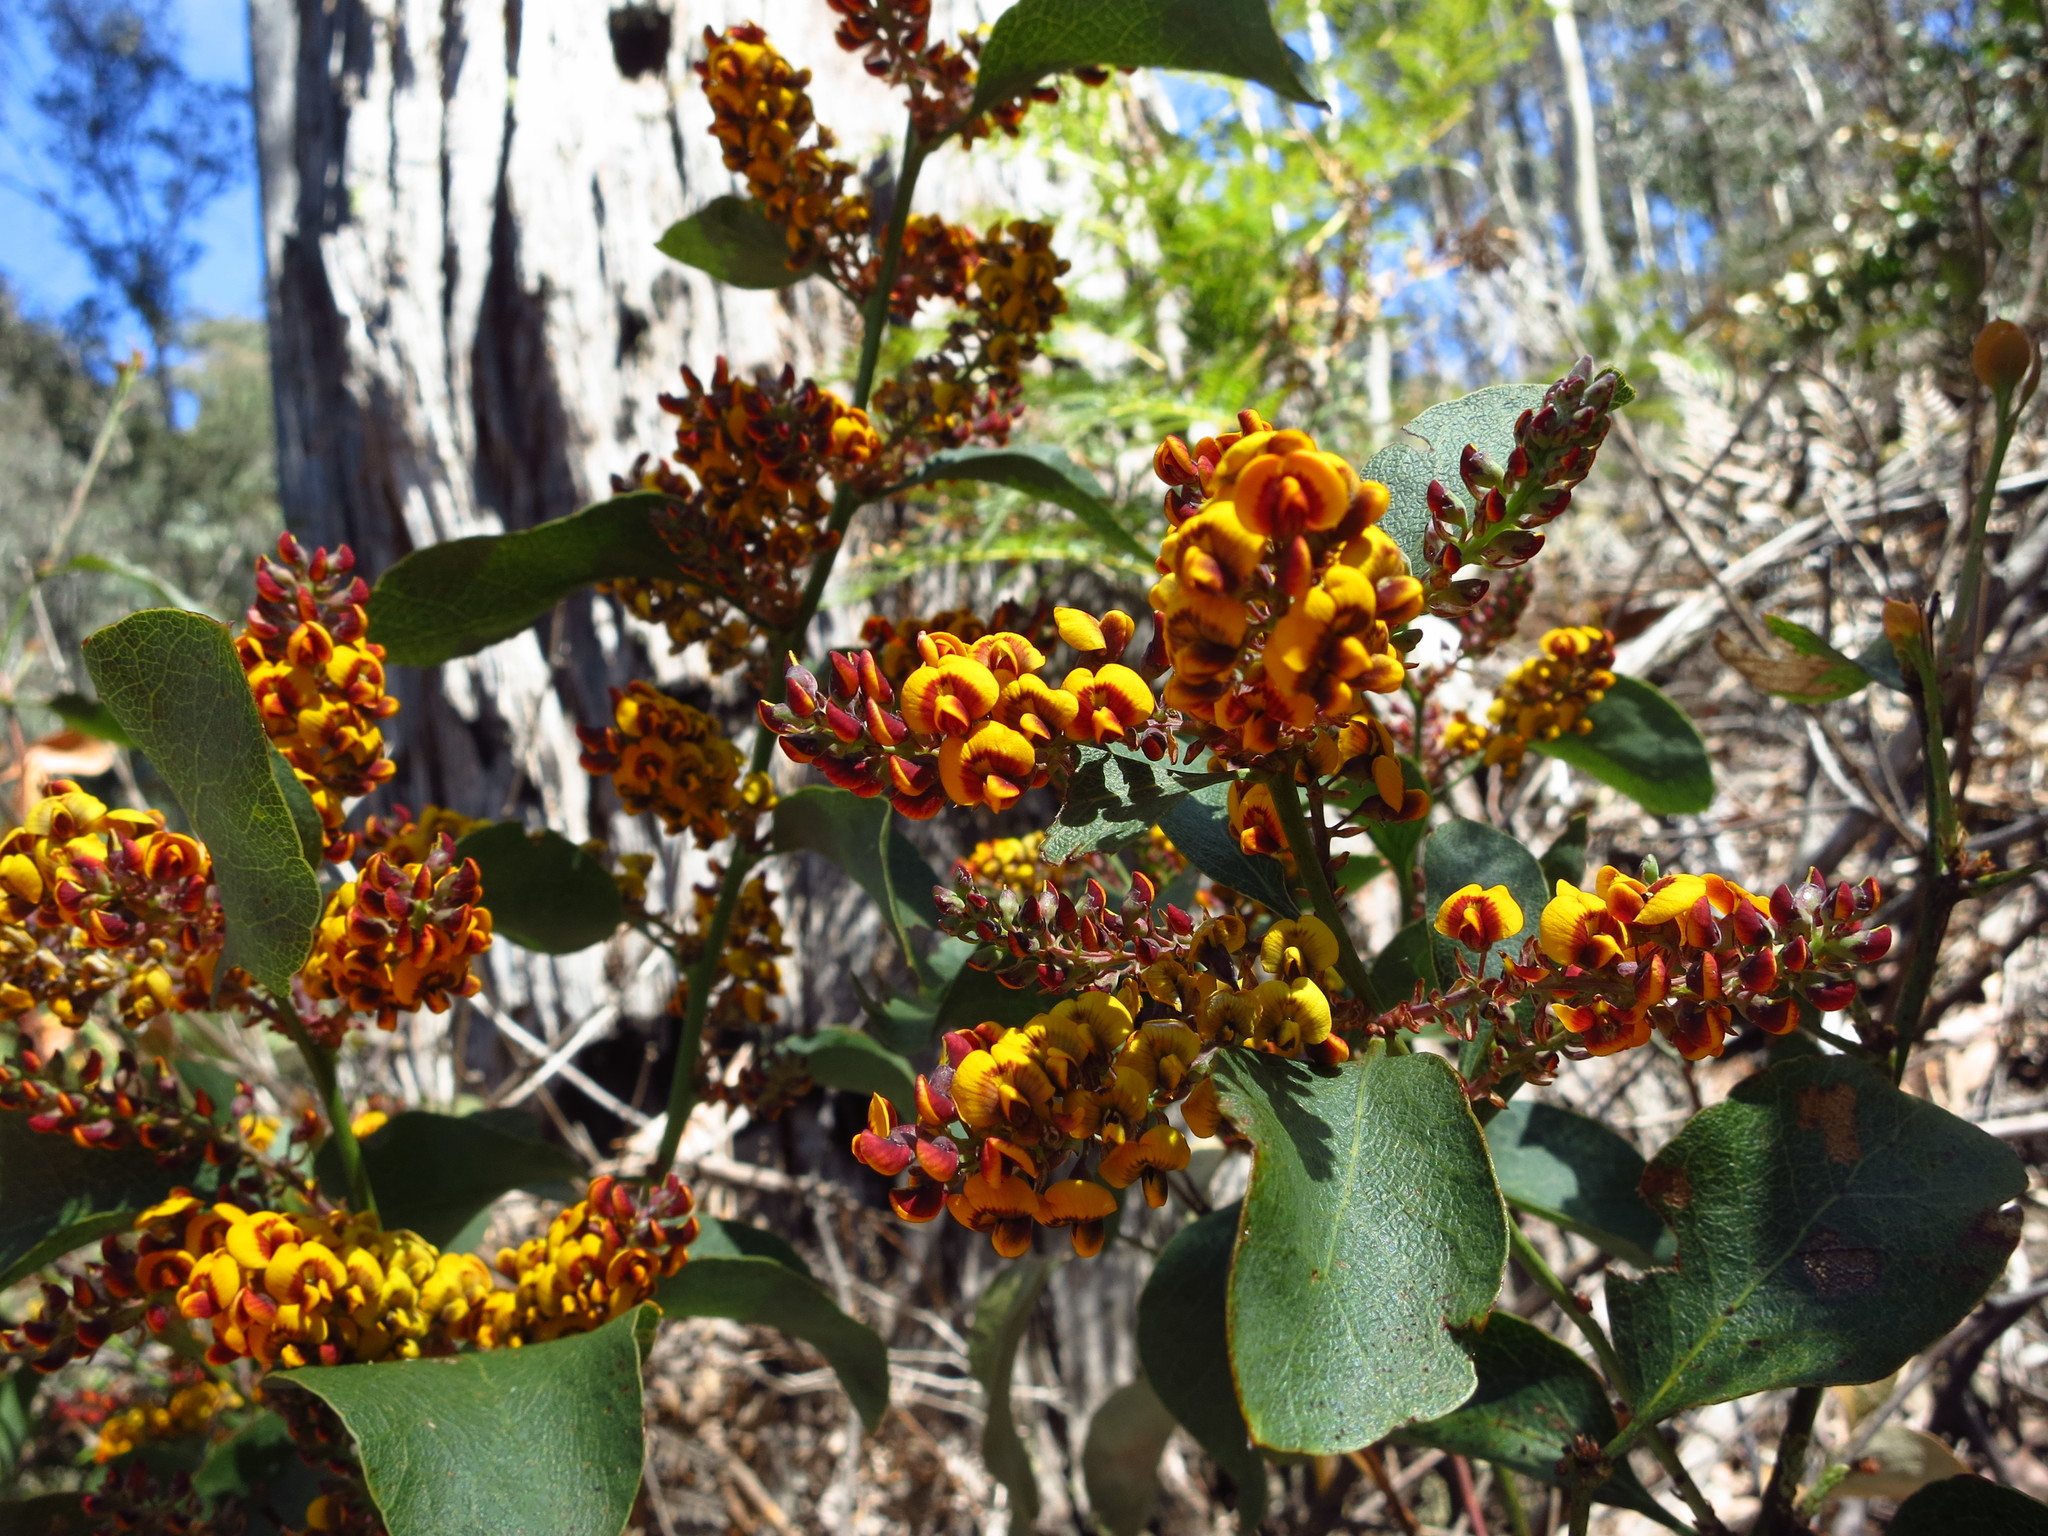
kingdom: Plantae
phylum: Tracheophyta
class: Magnoliopsida
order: Fabales
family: Fabaceae
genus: Daviesia
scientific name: Daviesia latifolia
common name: Hop bitter-pea
